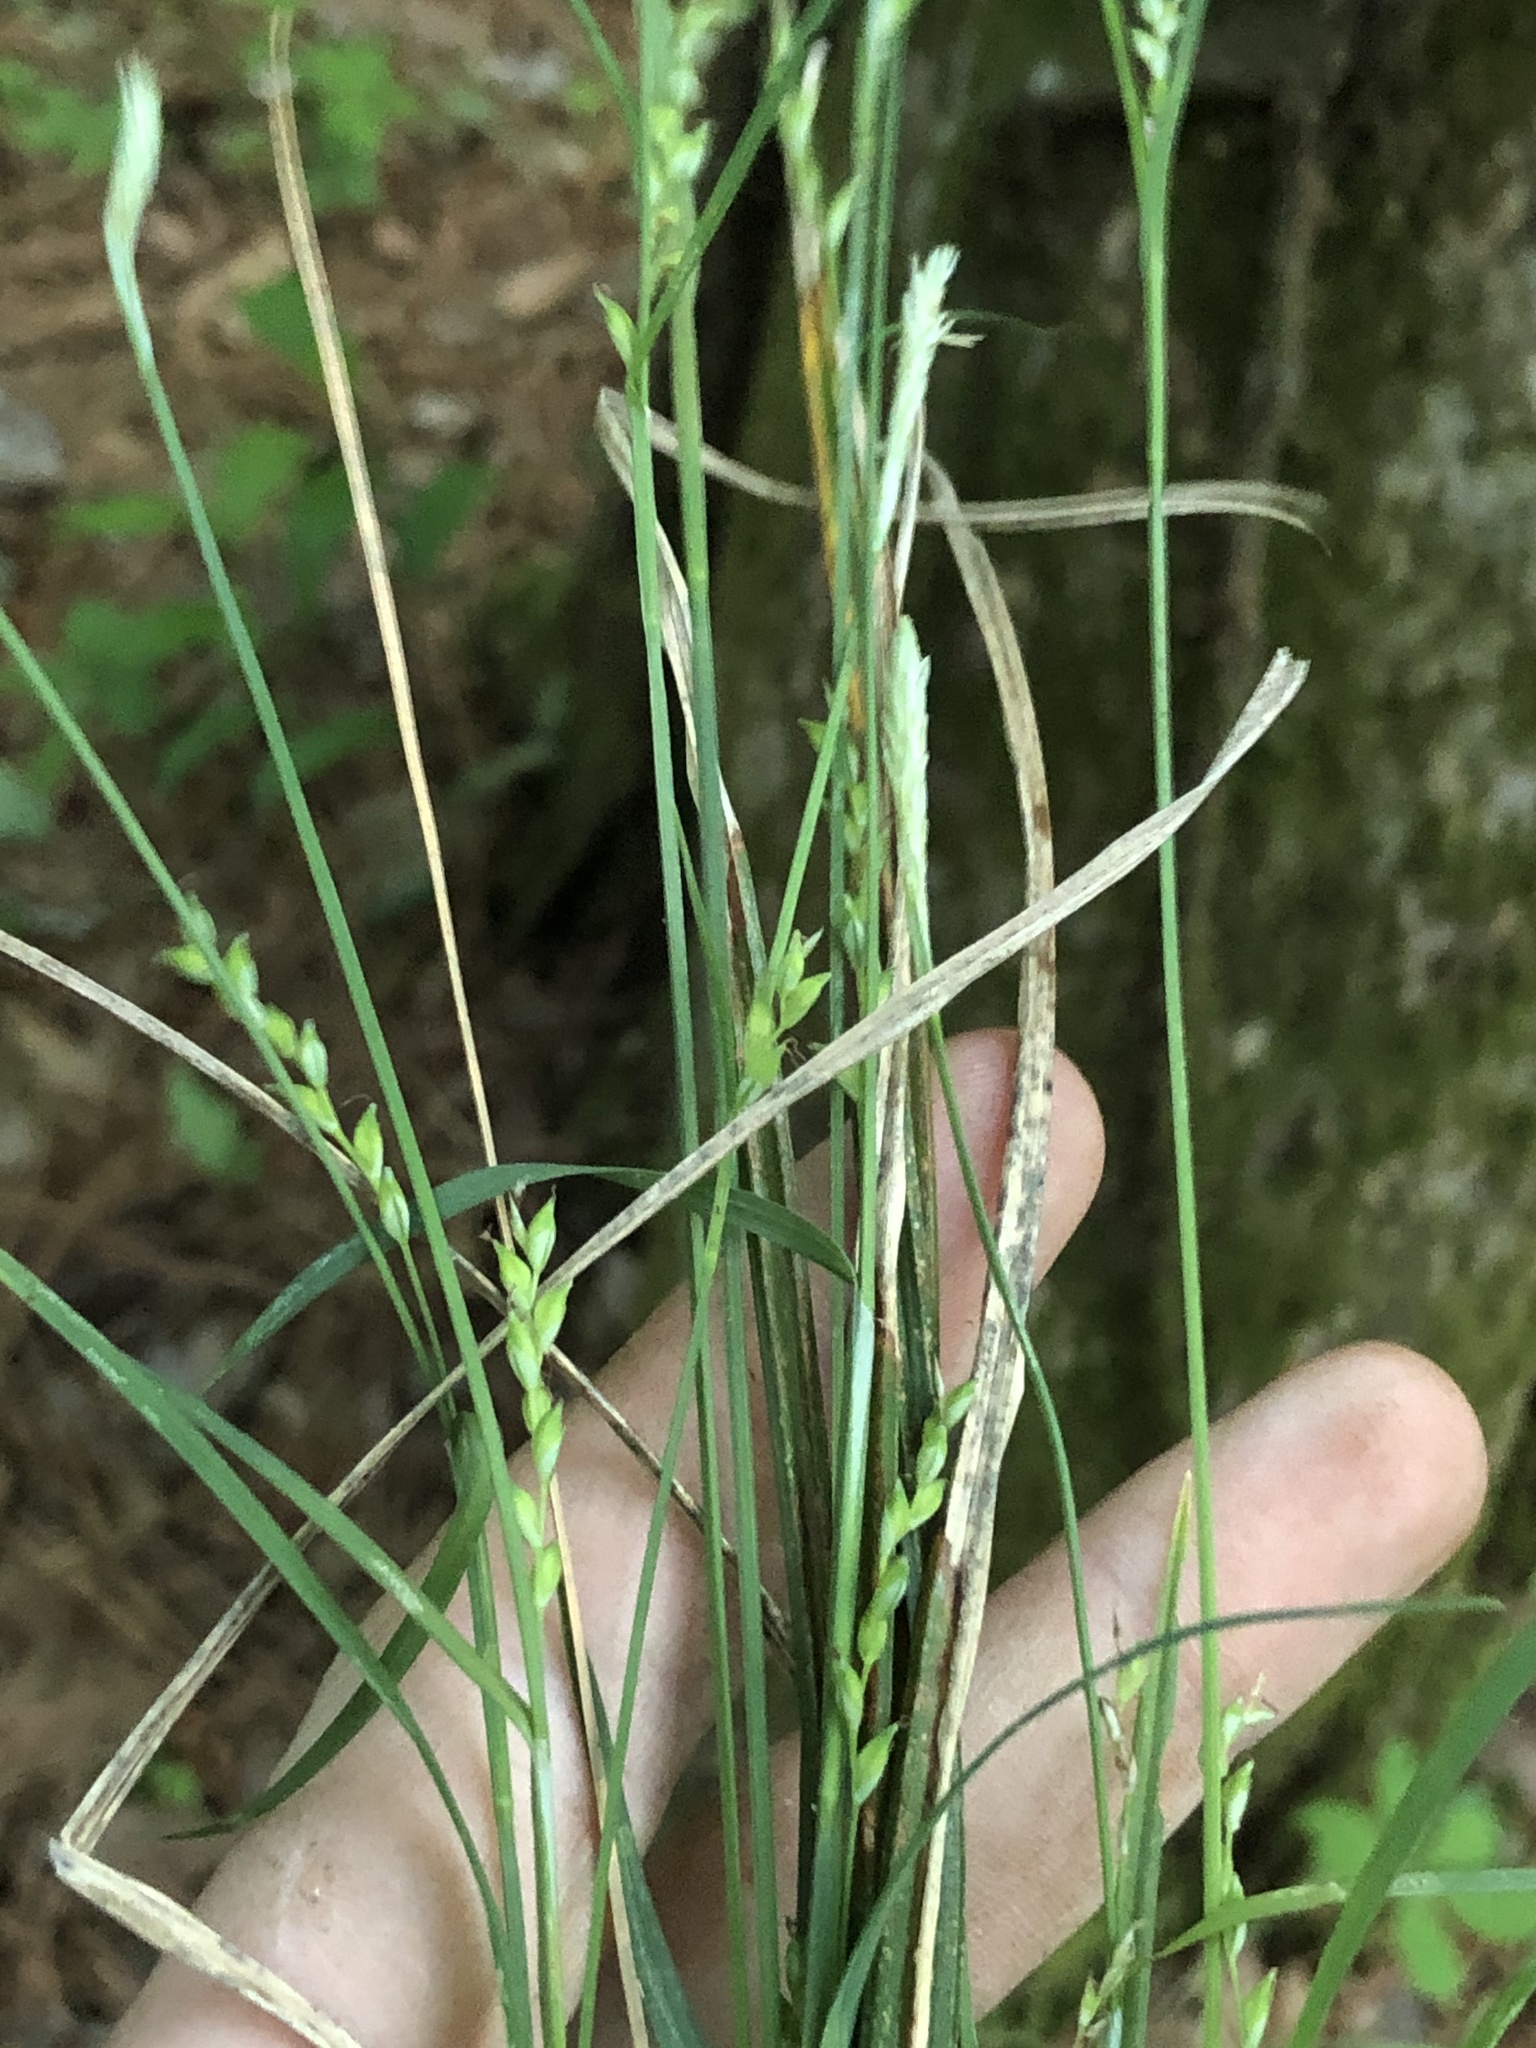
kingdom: Plantae
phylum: Tracheophyta
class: Liliopsida
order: Poales
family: Cyperaceae
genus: Carex
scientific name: Carex ignota
